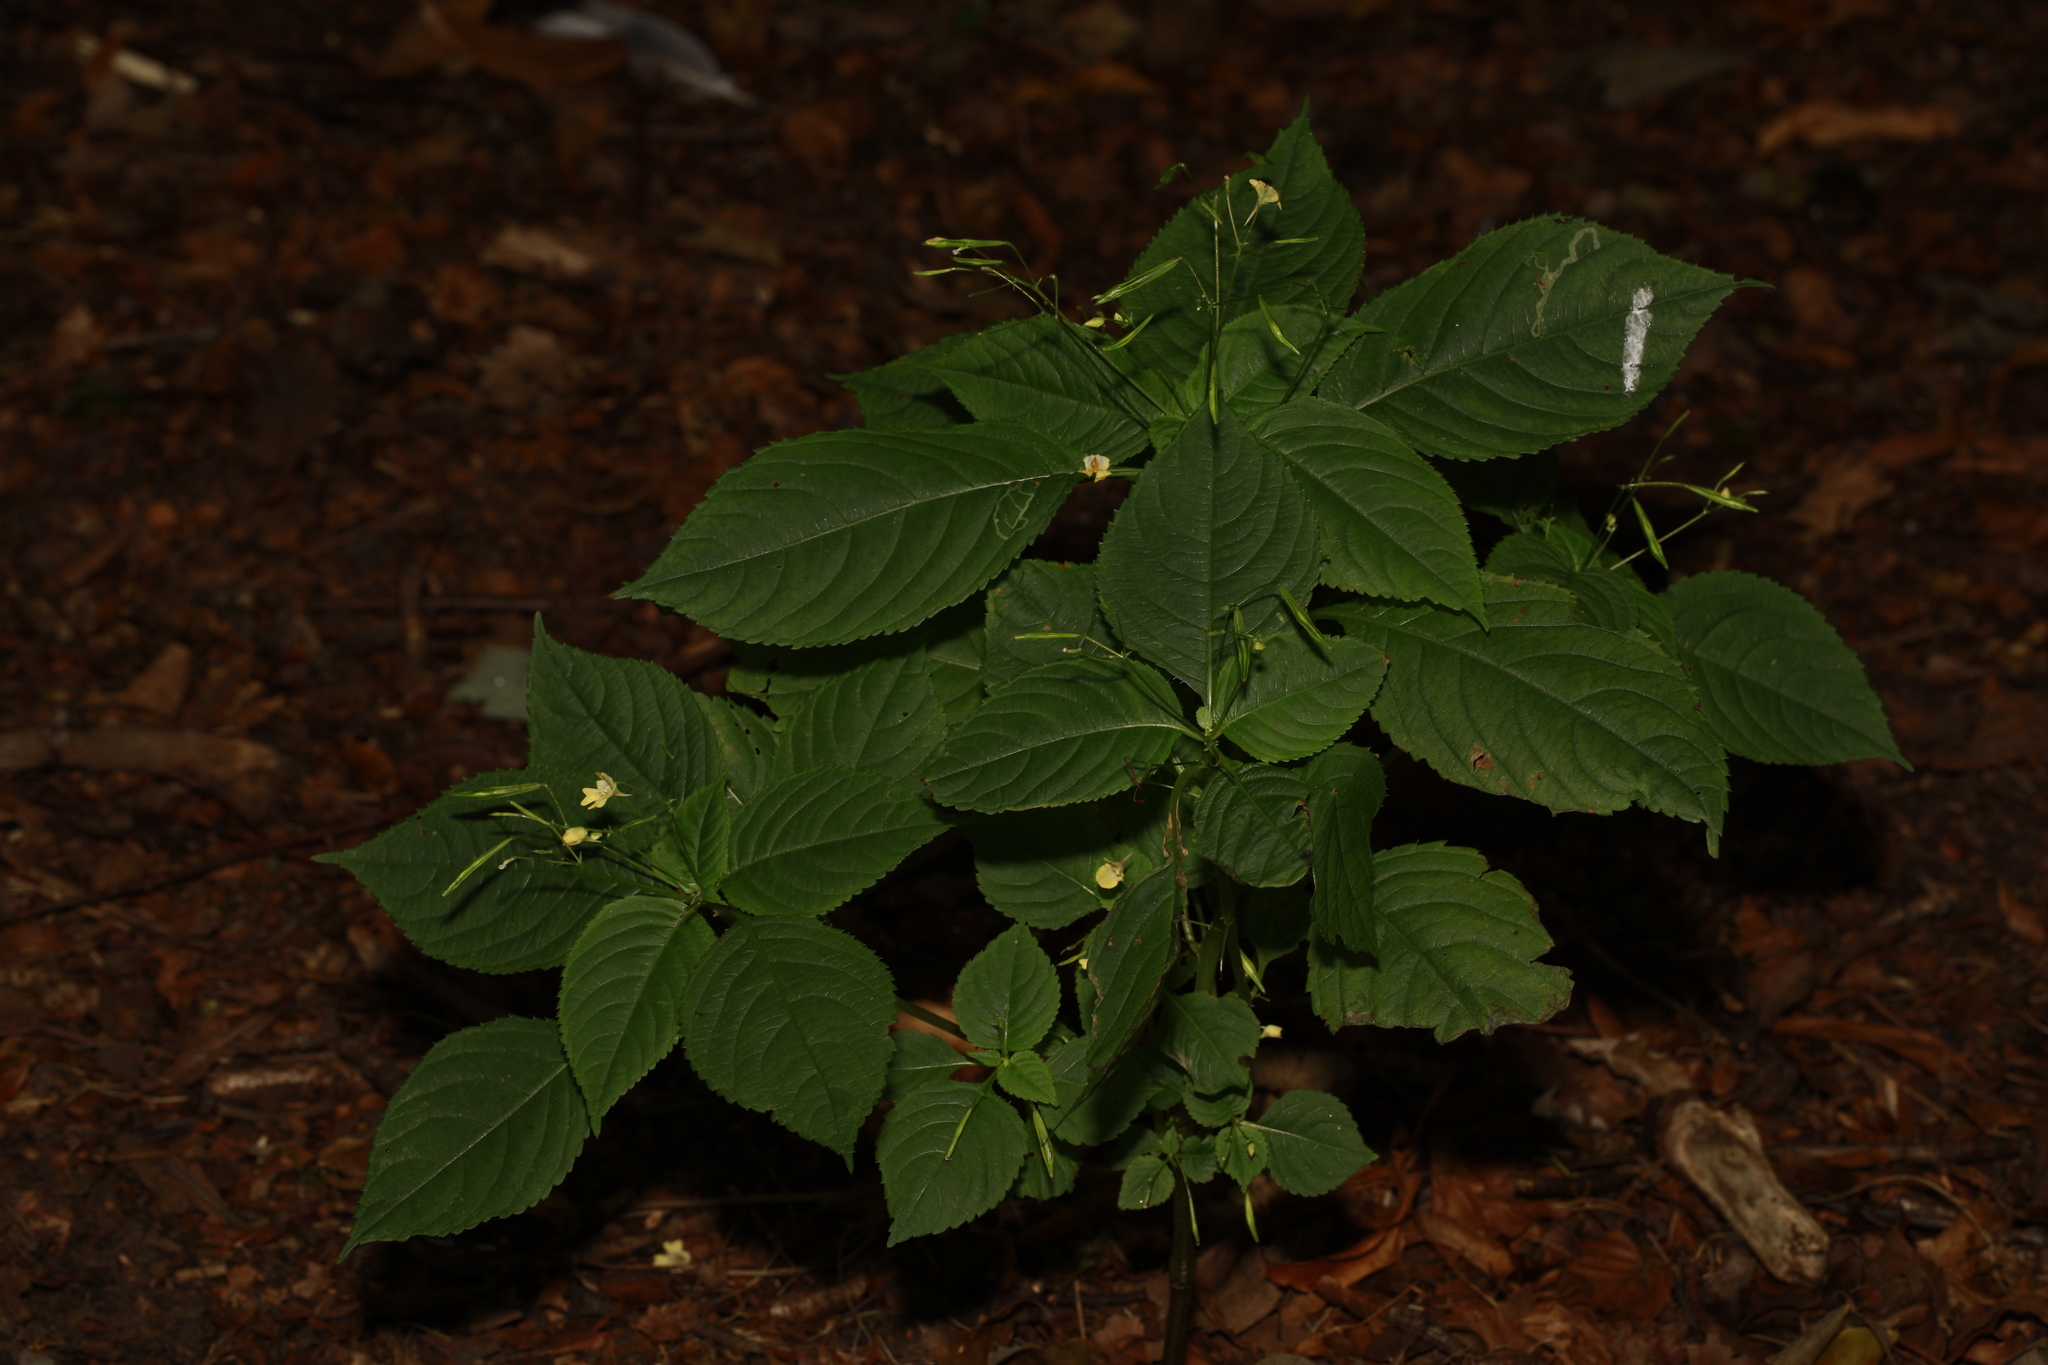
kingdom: Plantae
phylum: Tracheophyta
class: Magnoliopsida
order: Ericales
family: Balsaminaceae
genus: Impatiens
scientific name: Impatiens parviflora
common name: Small balsam
